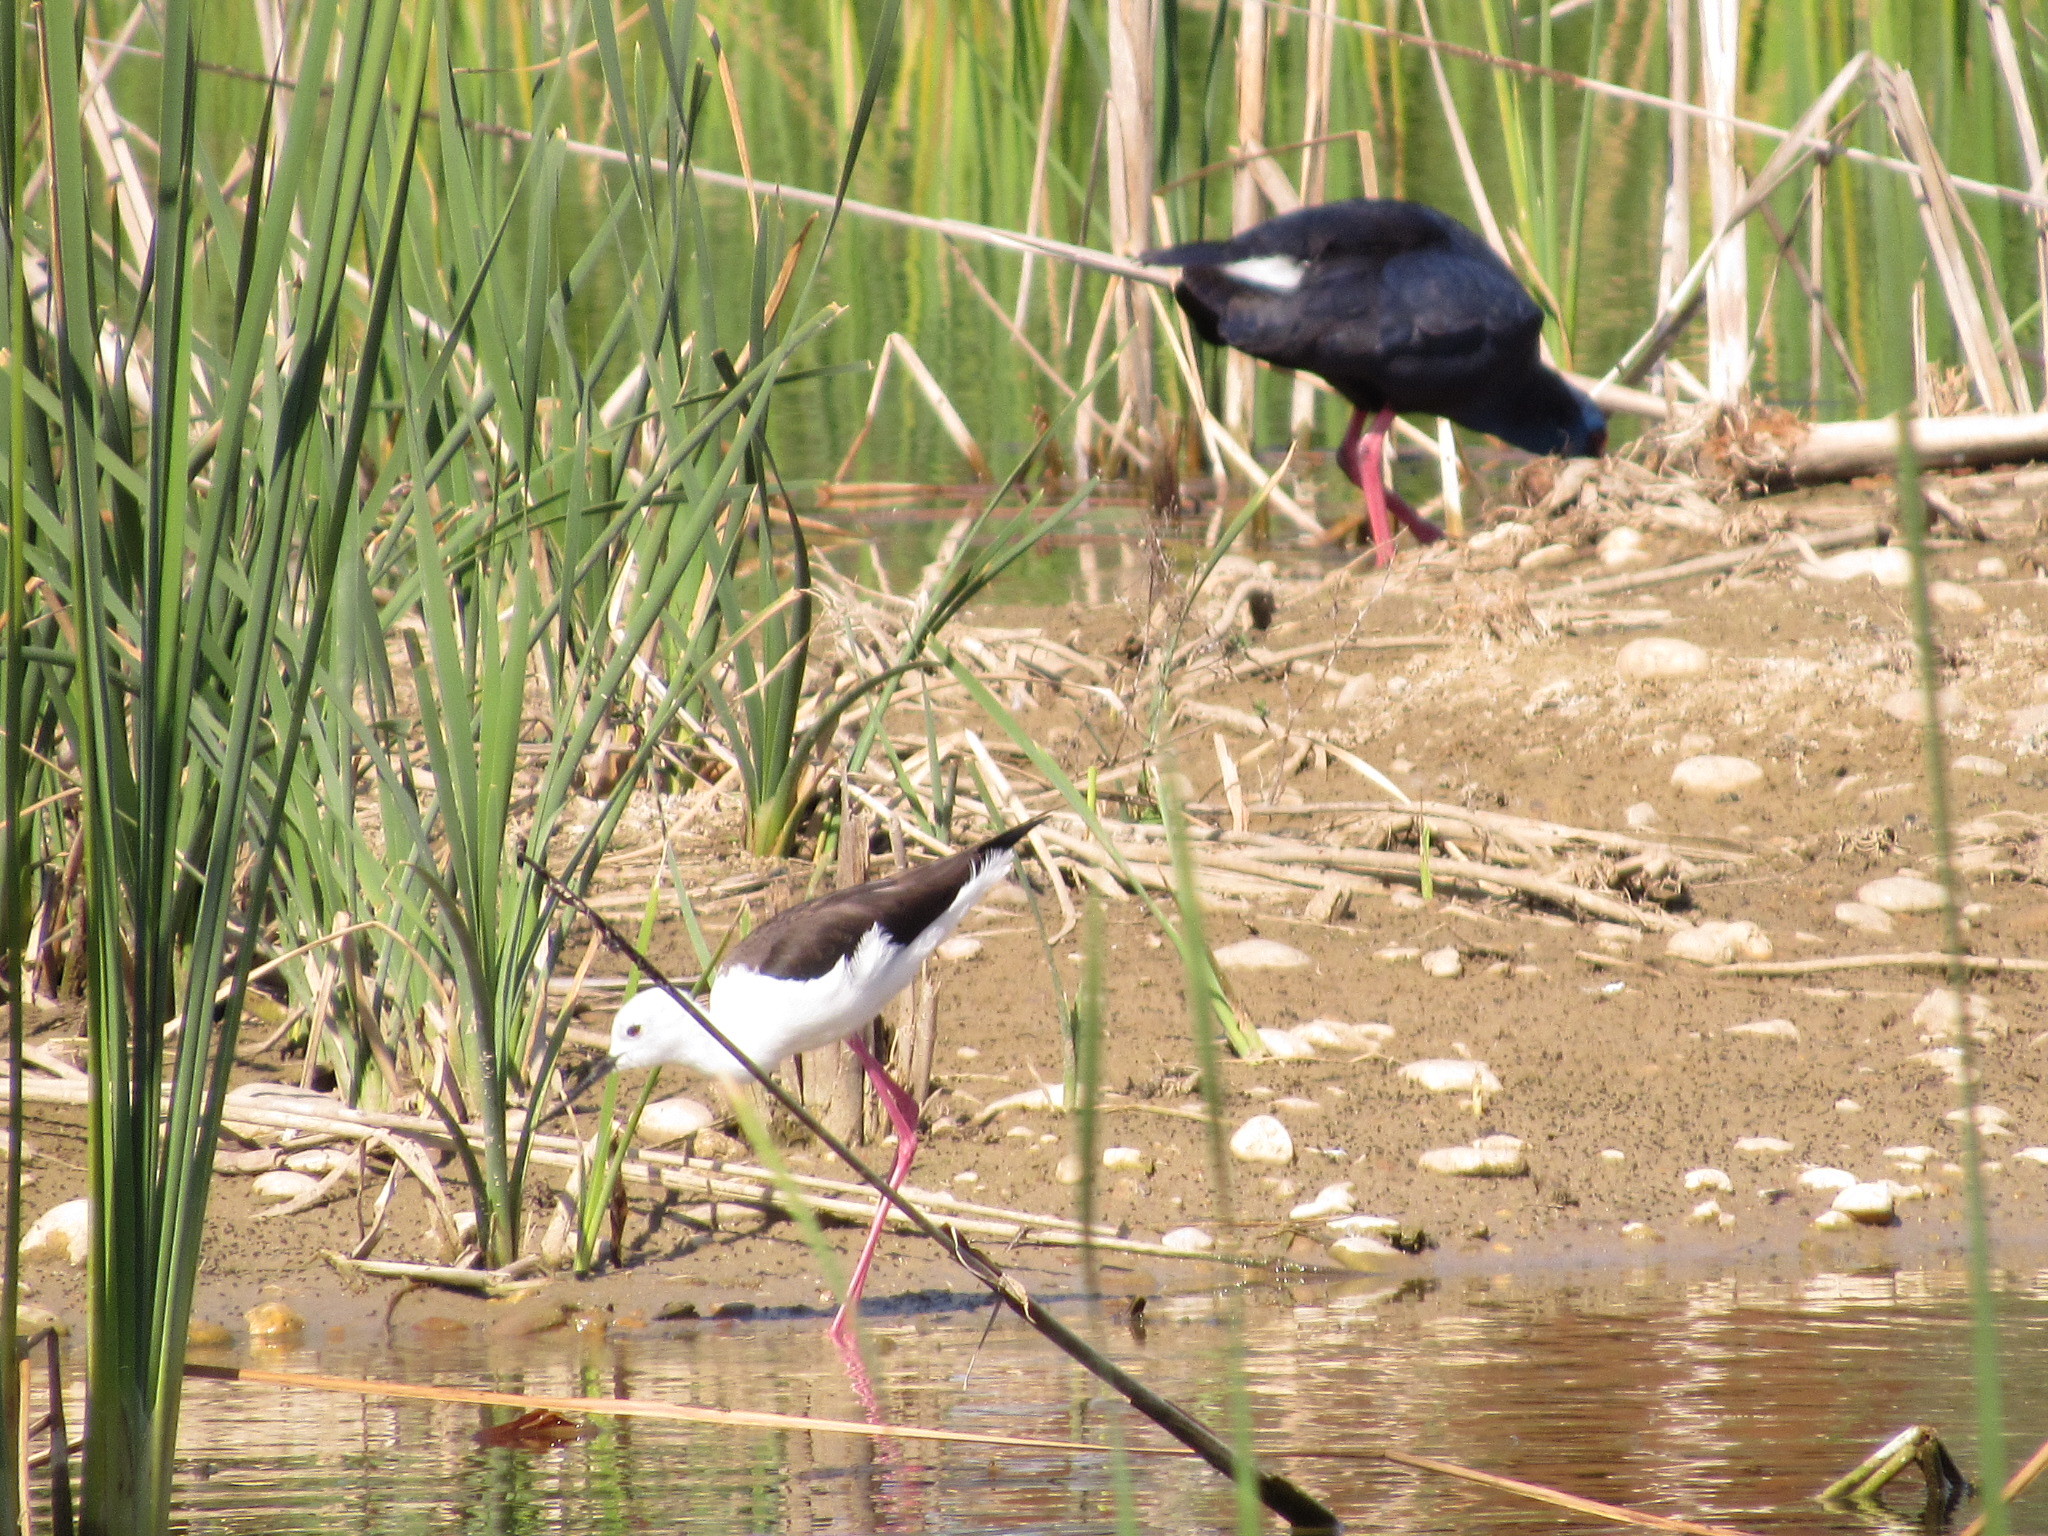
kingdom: Animalia
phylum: Chordata
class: Aves
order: Gruiformes
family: Rallidae
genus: Porphyrio
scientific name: Porphyrio porphyrio
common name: Purple swamphen
